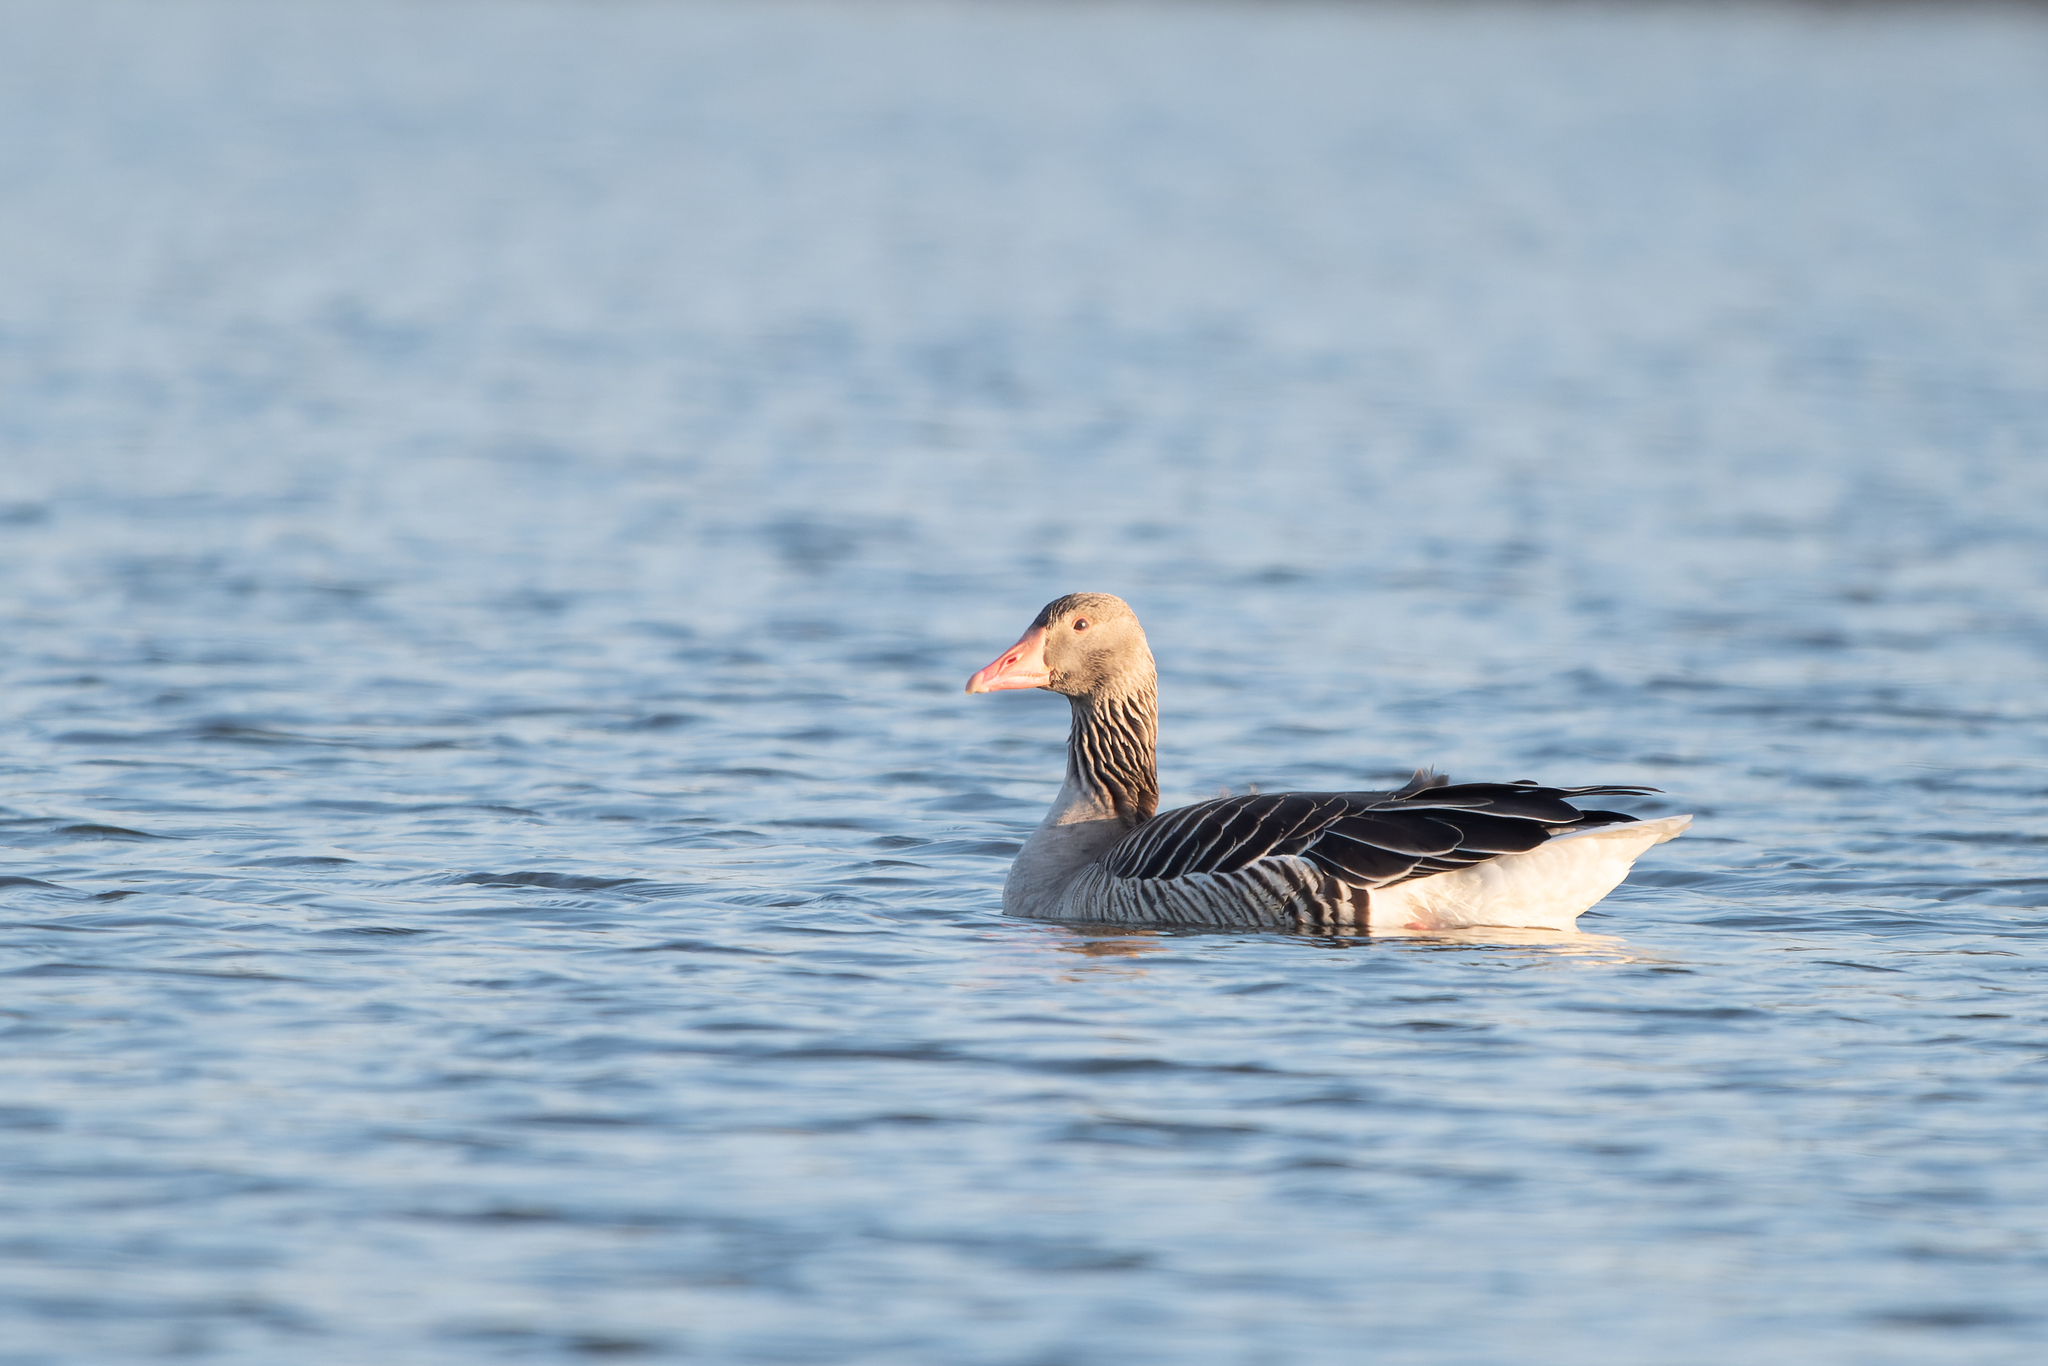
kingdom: Animalia
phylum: Chordata
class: Aves
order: Anseriformes
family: Anatidae
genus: Anser
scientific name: Anser anser
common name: Greylag goose
